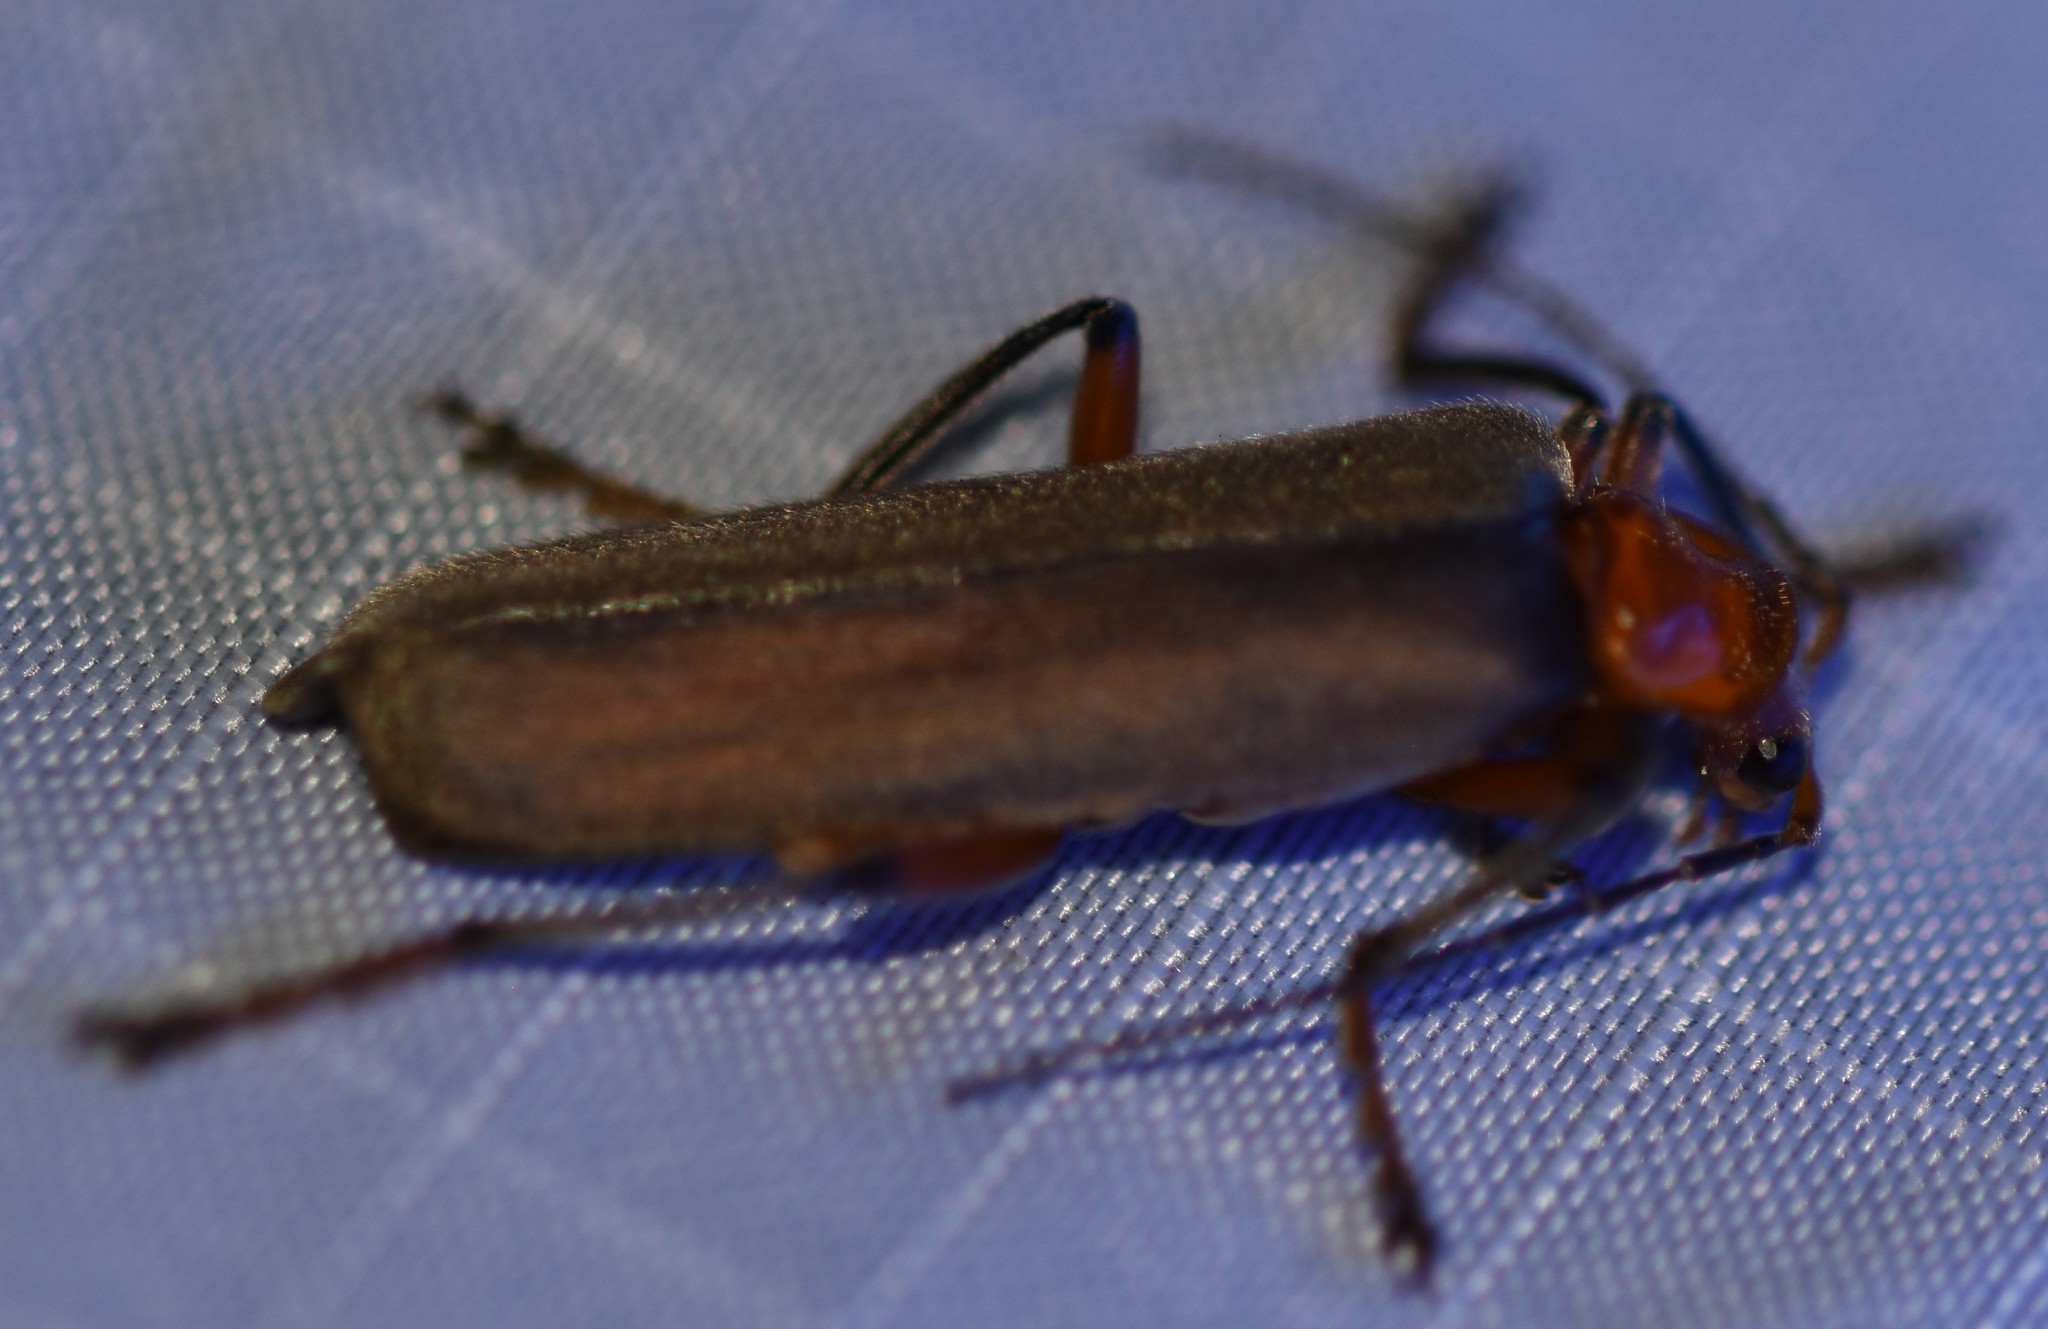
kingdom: Animalia
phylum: Arthropoda
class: Insecta
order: Coleoptera
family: Cantharidae
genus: Pacificanthia
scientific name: Pacificanthia consors
